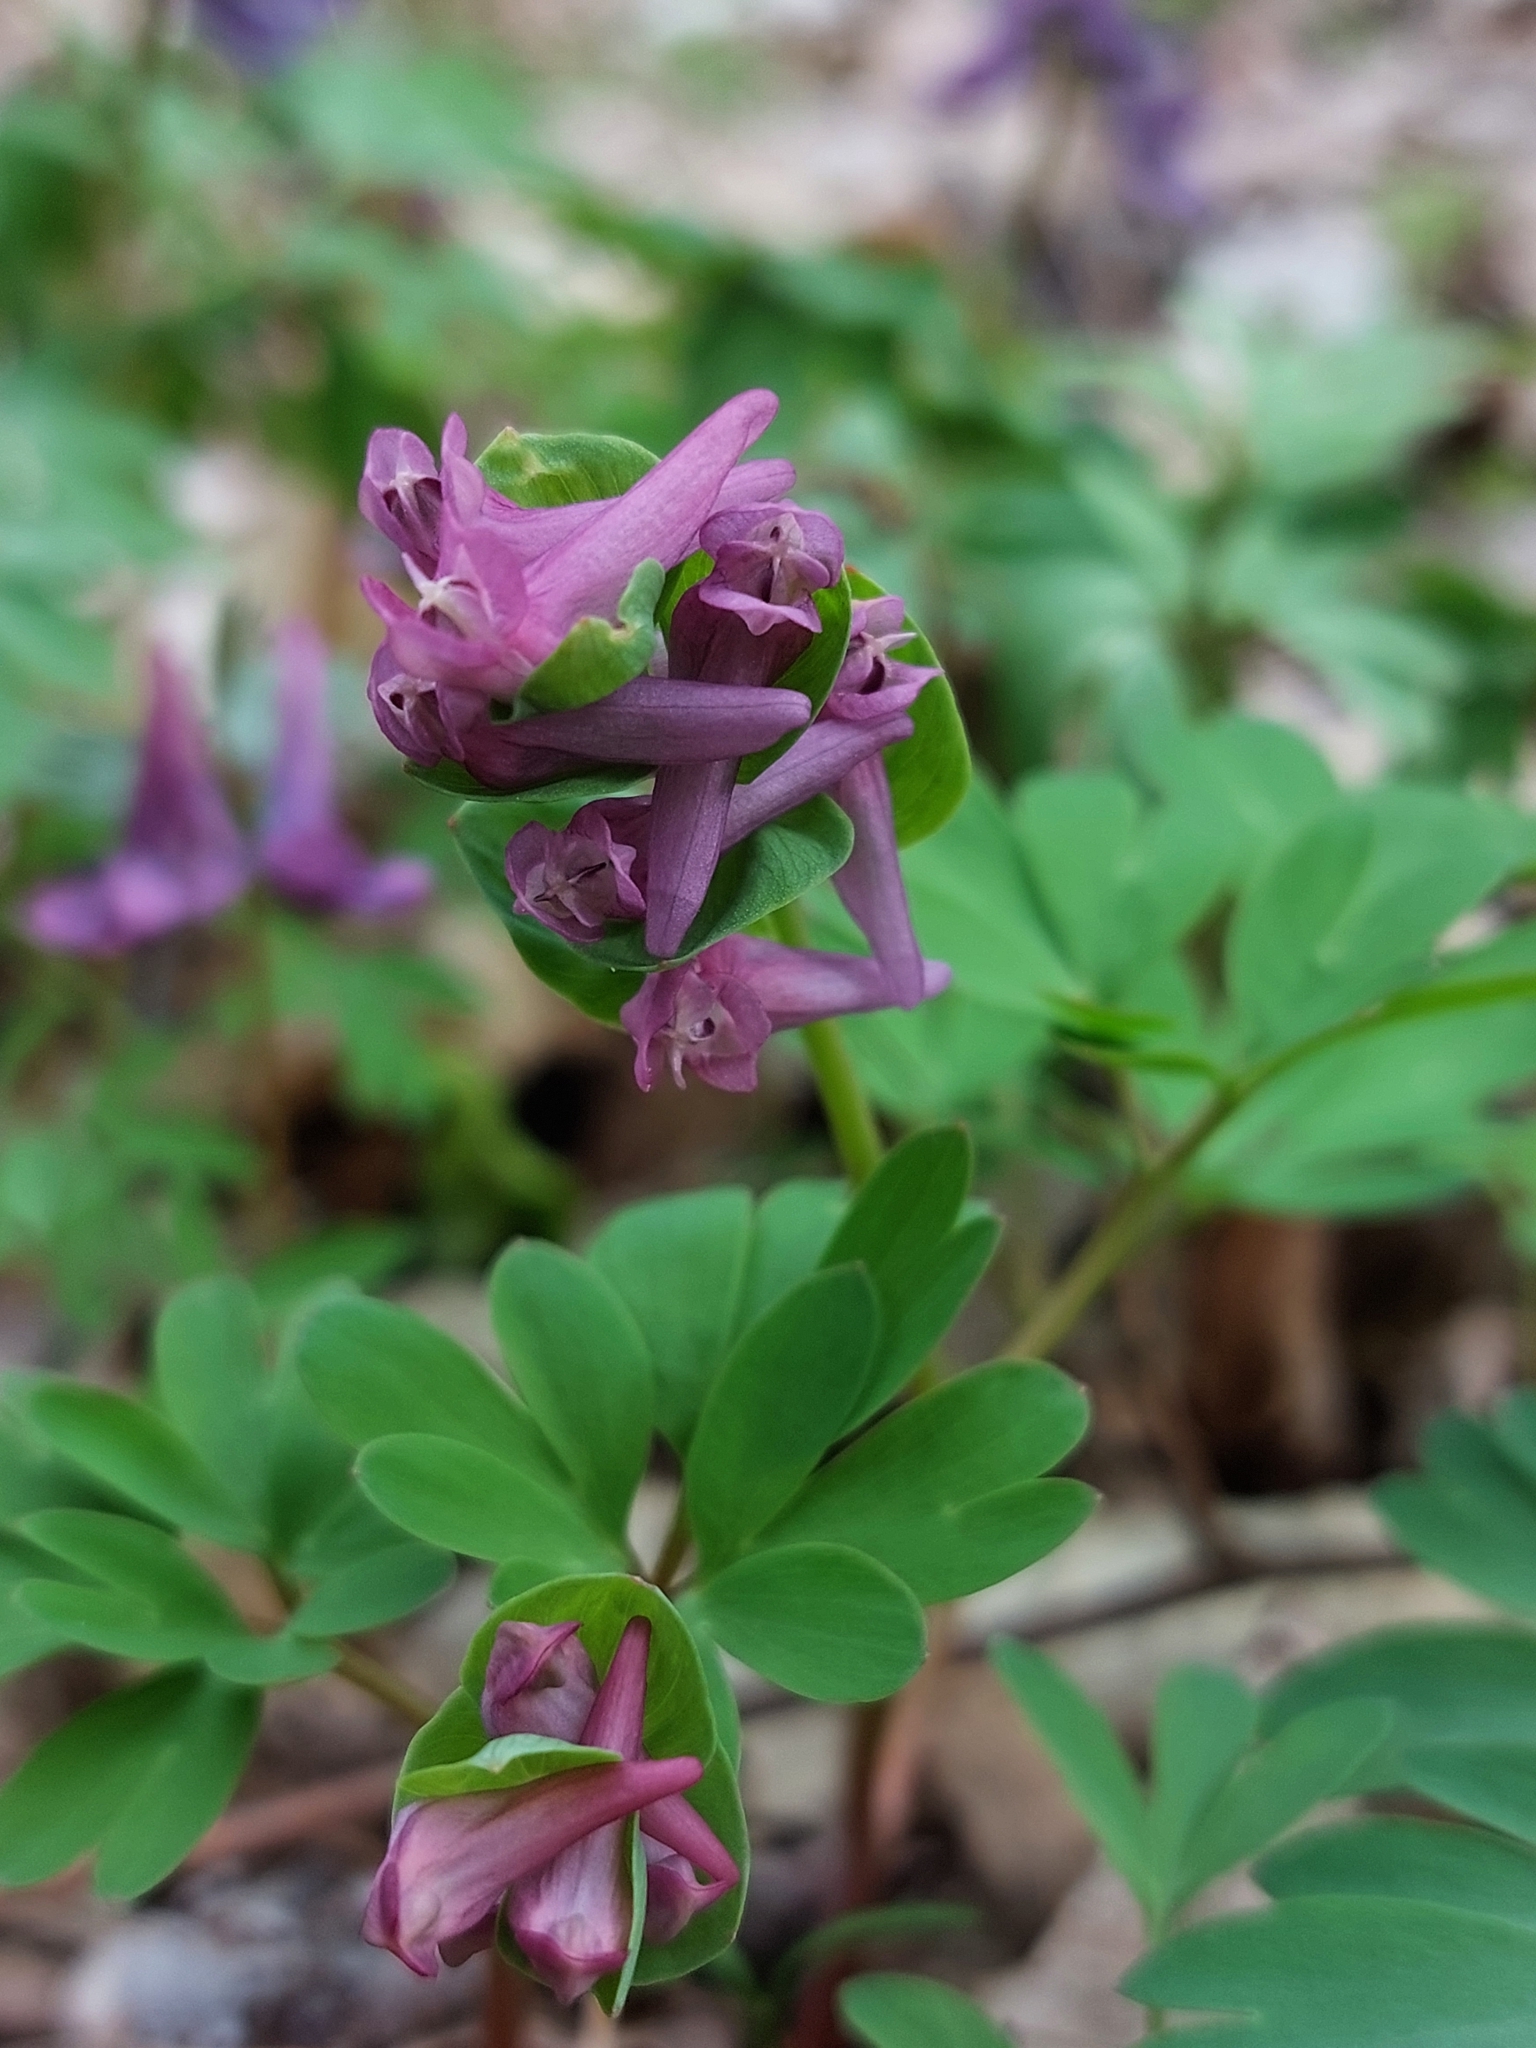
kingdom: Plantae
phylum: Tracheophyta
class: Magnoliopsida
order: Ranunculales
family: Papaveraceae
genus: Corydalis
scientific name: Corydalis intermedia
